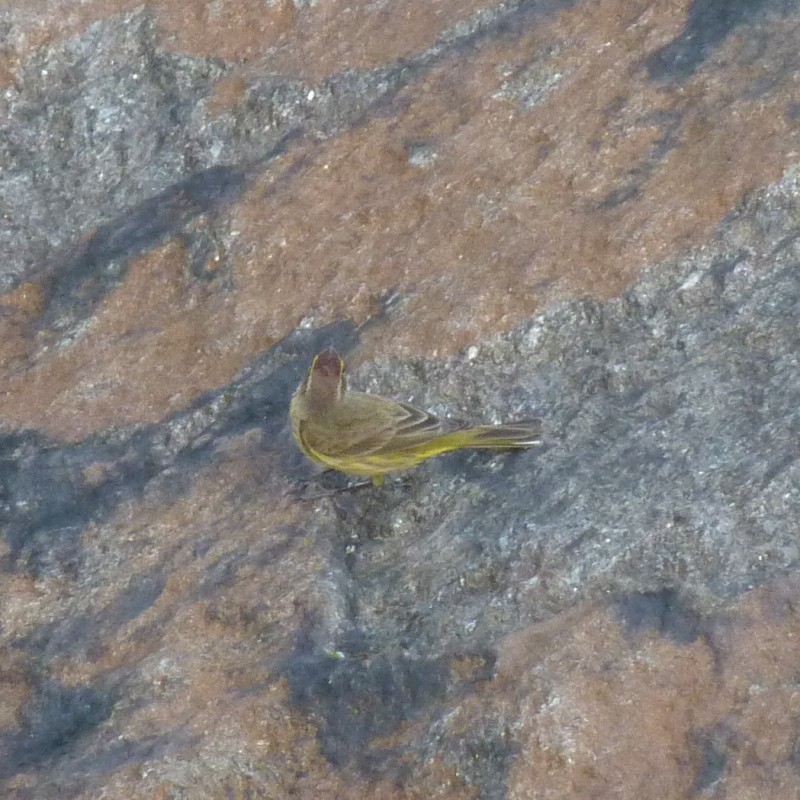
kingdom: Animalia
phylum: Chordata
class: Aves
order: Passeriformes
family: Parulidae
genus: Setophaga
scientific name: Setophaga palmarum
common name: Palm warbler
